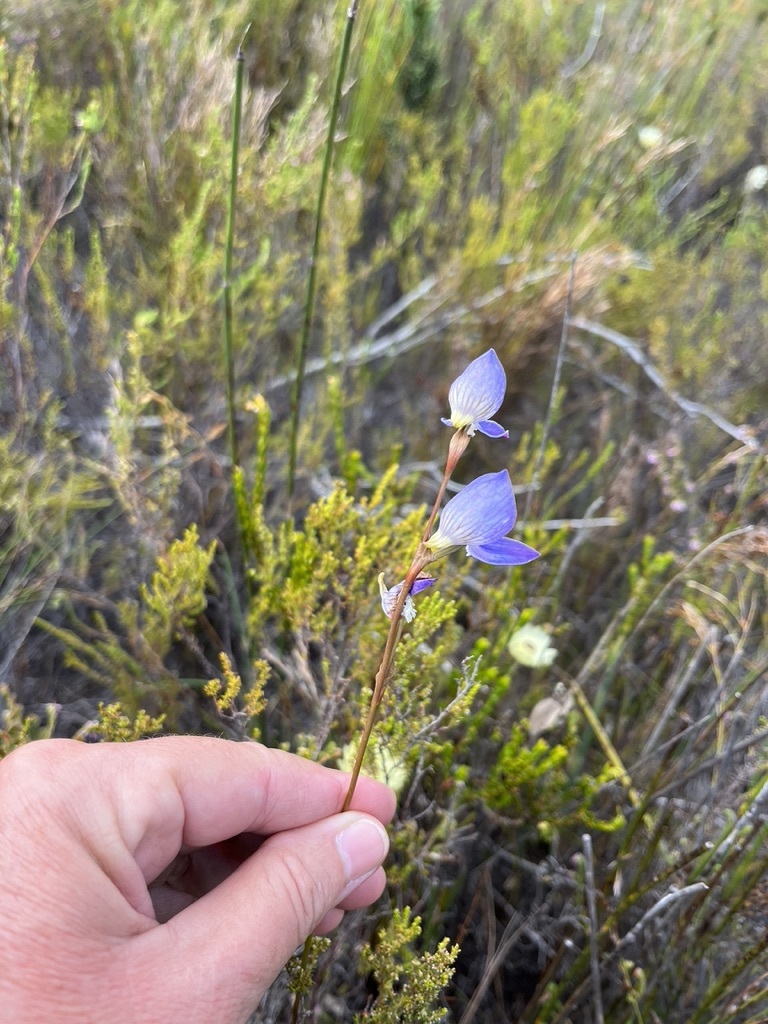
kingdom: Plantae
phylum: Tracheophyta
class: Liliopsida
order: Asparagales
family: Orchidaceae
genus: Disa
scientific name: Disa venusta
